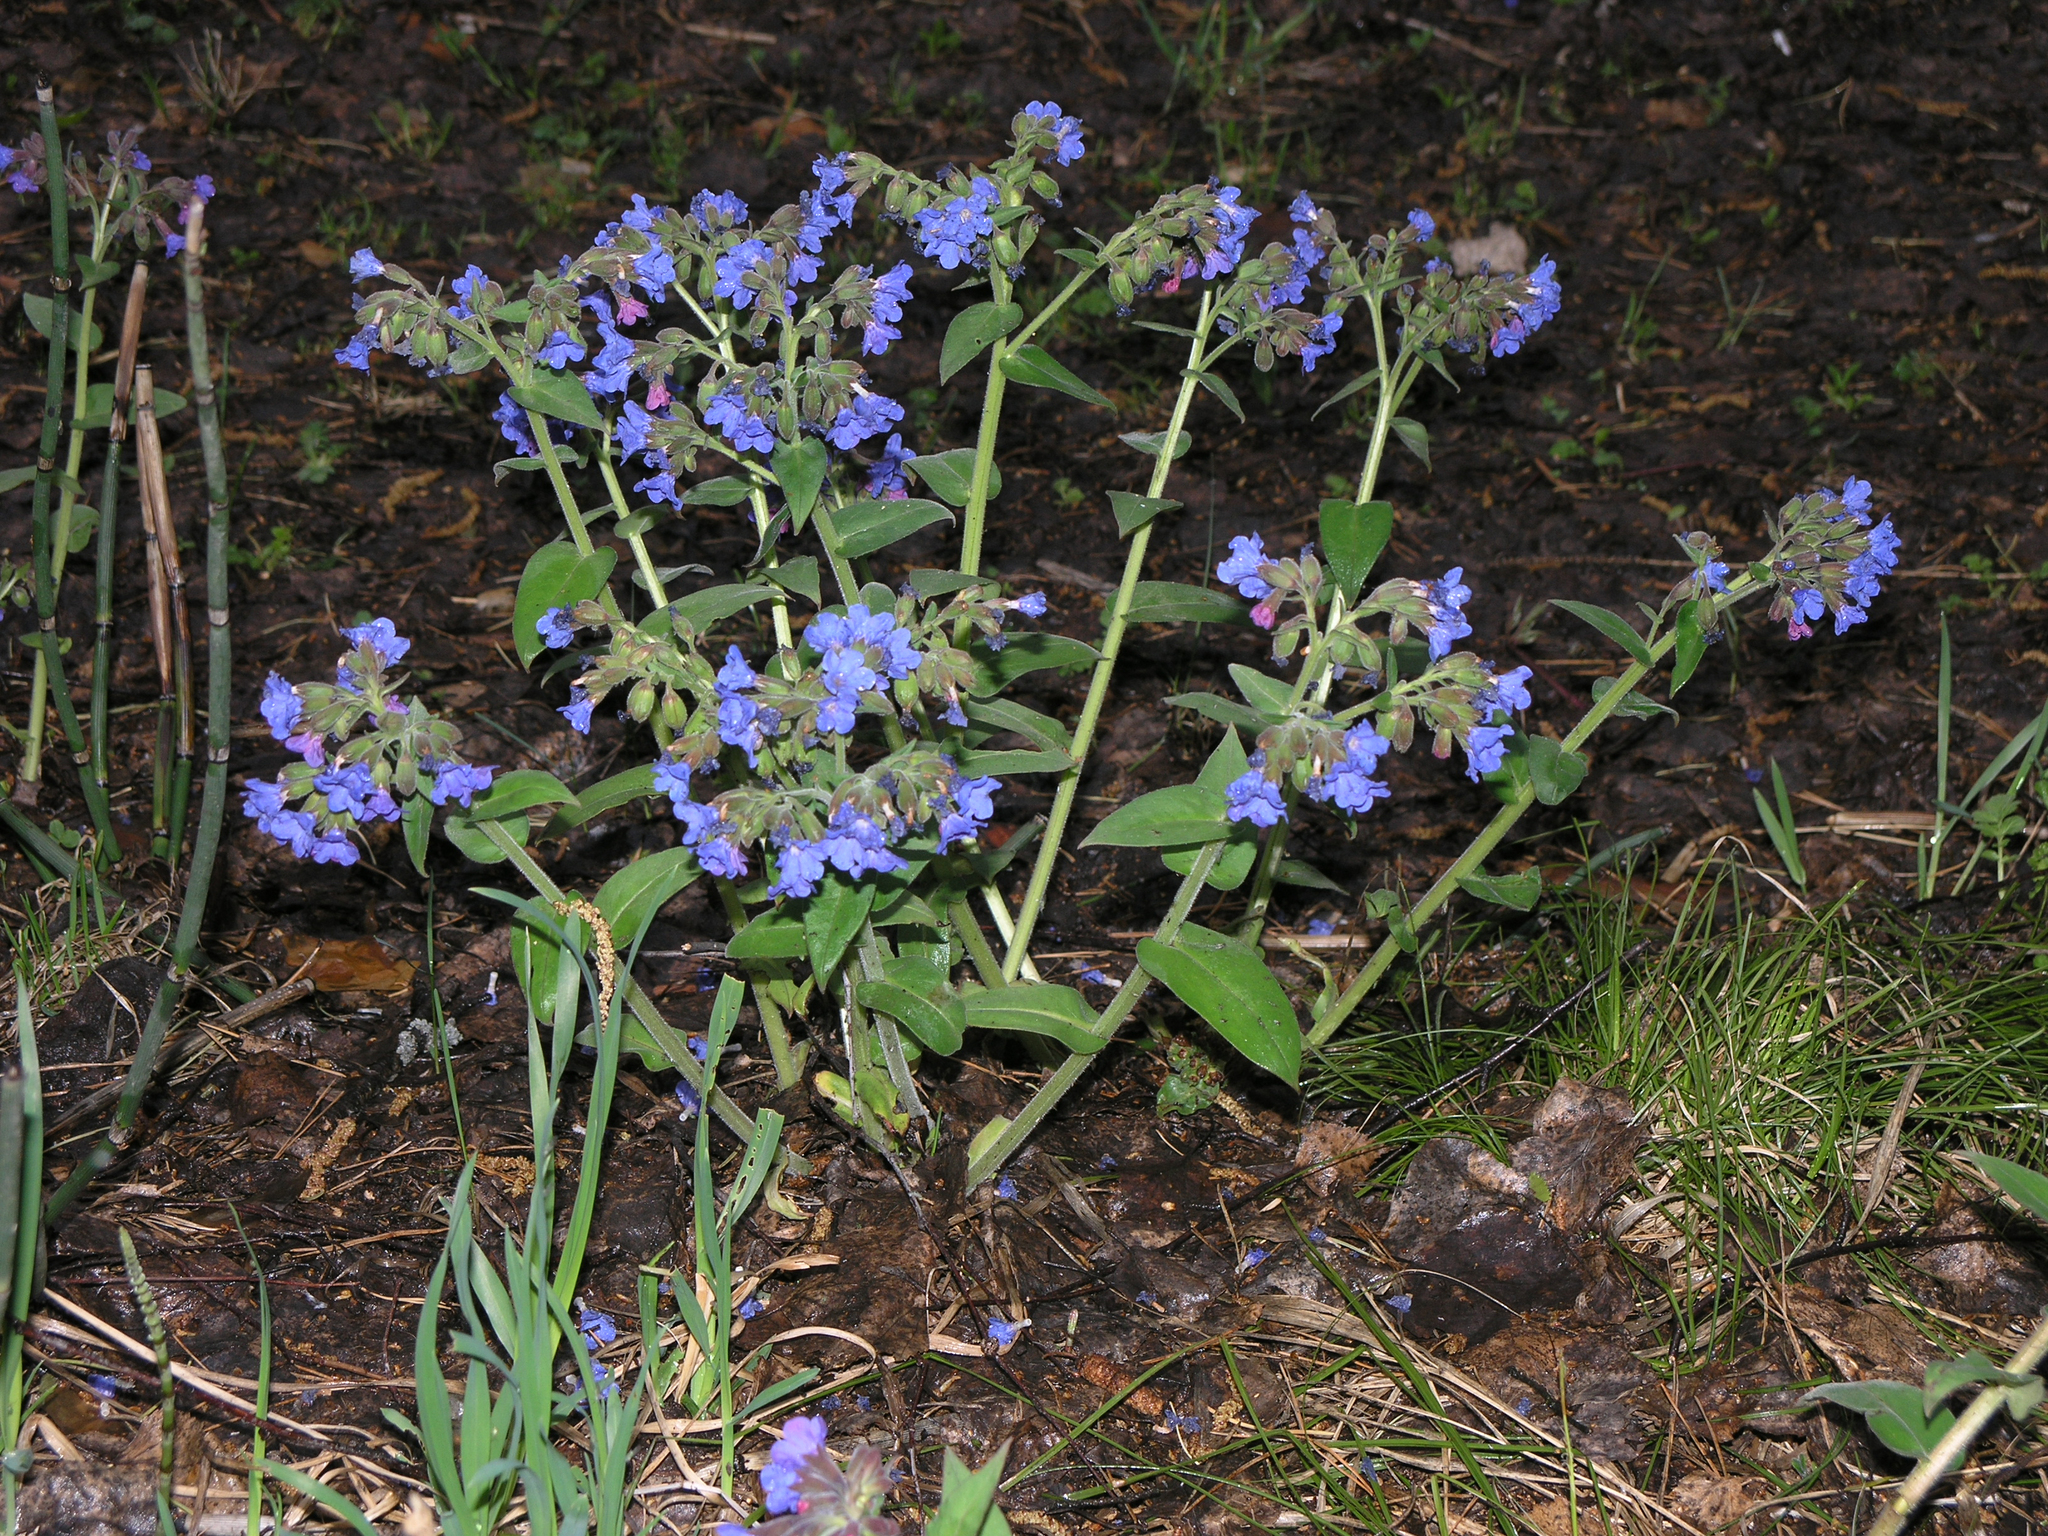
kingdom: Plantae
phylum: Tracheophyta
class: Magnoliopsida
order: Boraginales
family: Boraginaceae
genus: Pulmonaria
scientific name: Pulmonaria mollis
